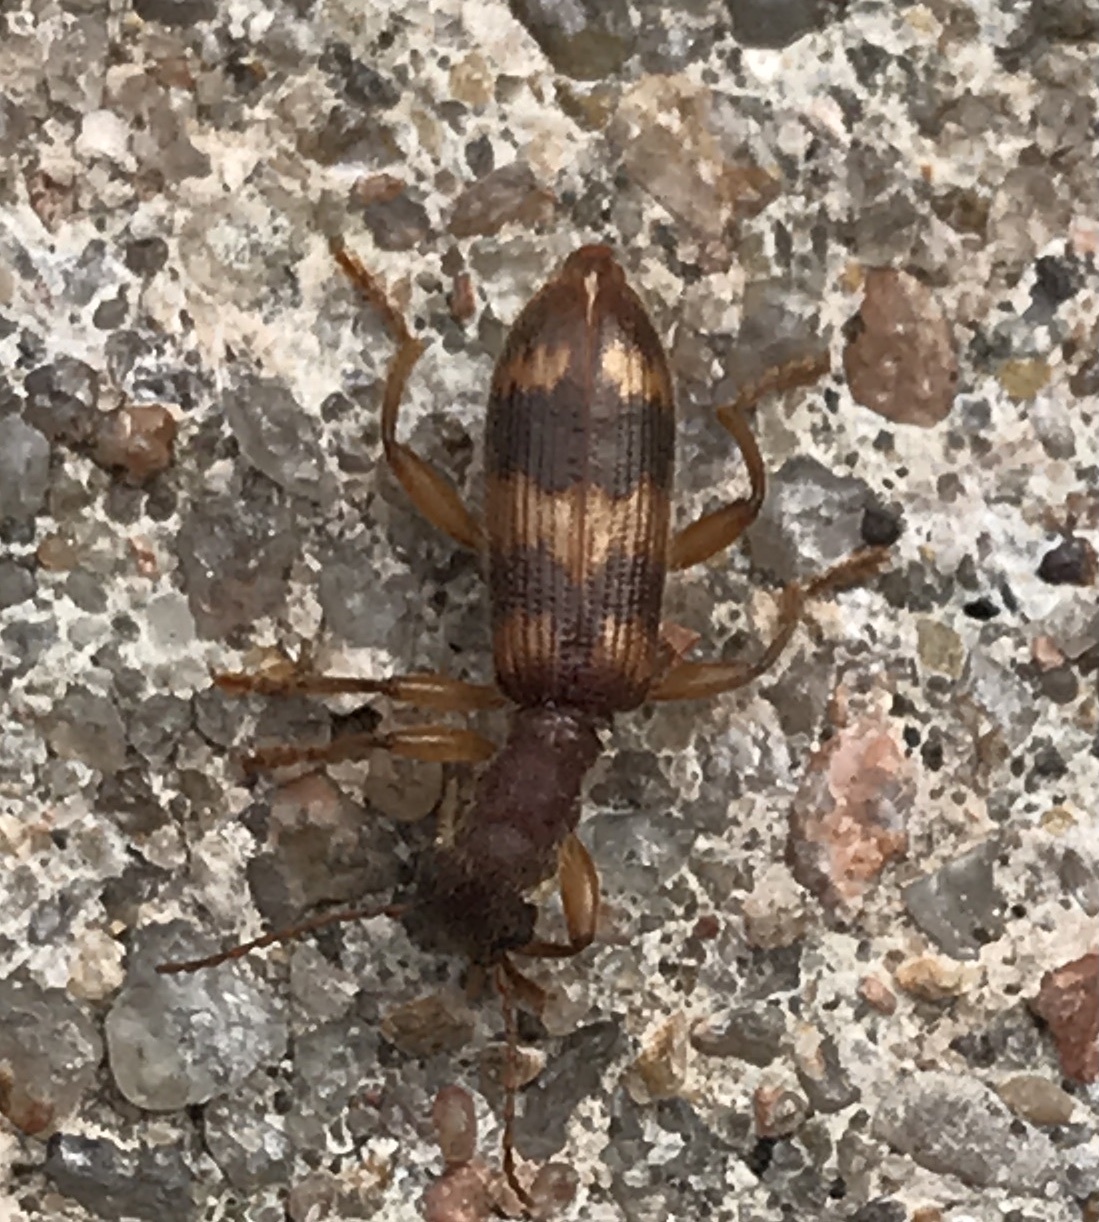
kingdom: Animalia
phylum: Arthropoda
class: Insecta
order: Coleoptera
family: Cleridae
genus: Cymatodera
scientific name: Cymatodera undulata
